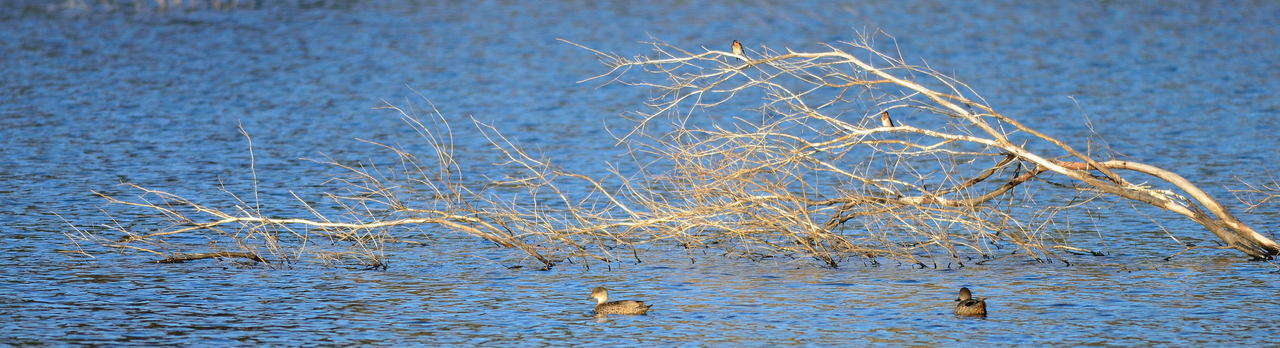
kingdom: Animalia
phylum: Chordata
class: Aves
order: Anseriformes
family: Anatidae
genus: Anas
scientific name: Anas gracilis
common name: Grey teal
